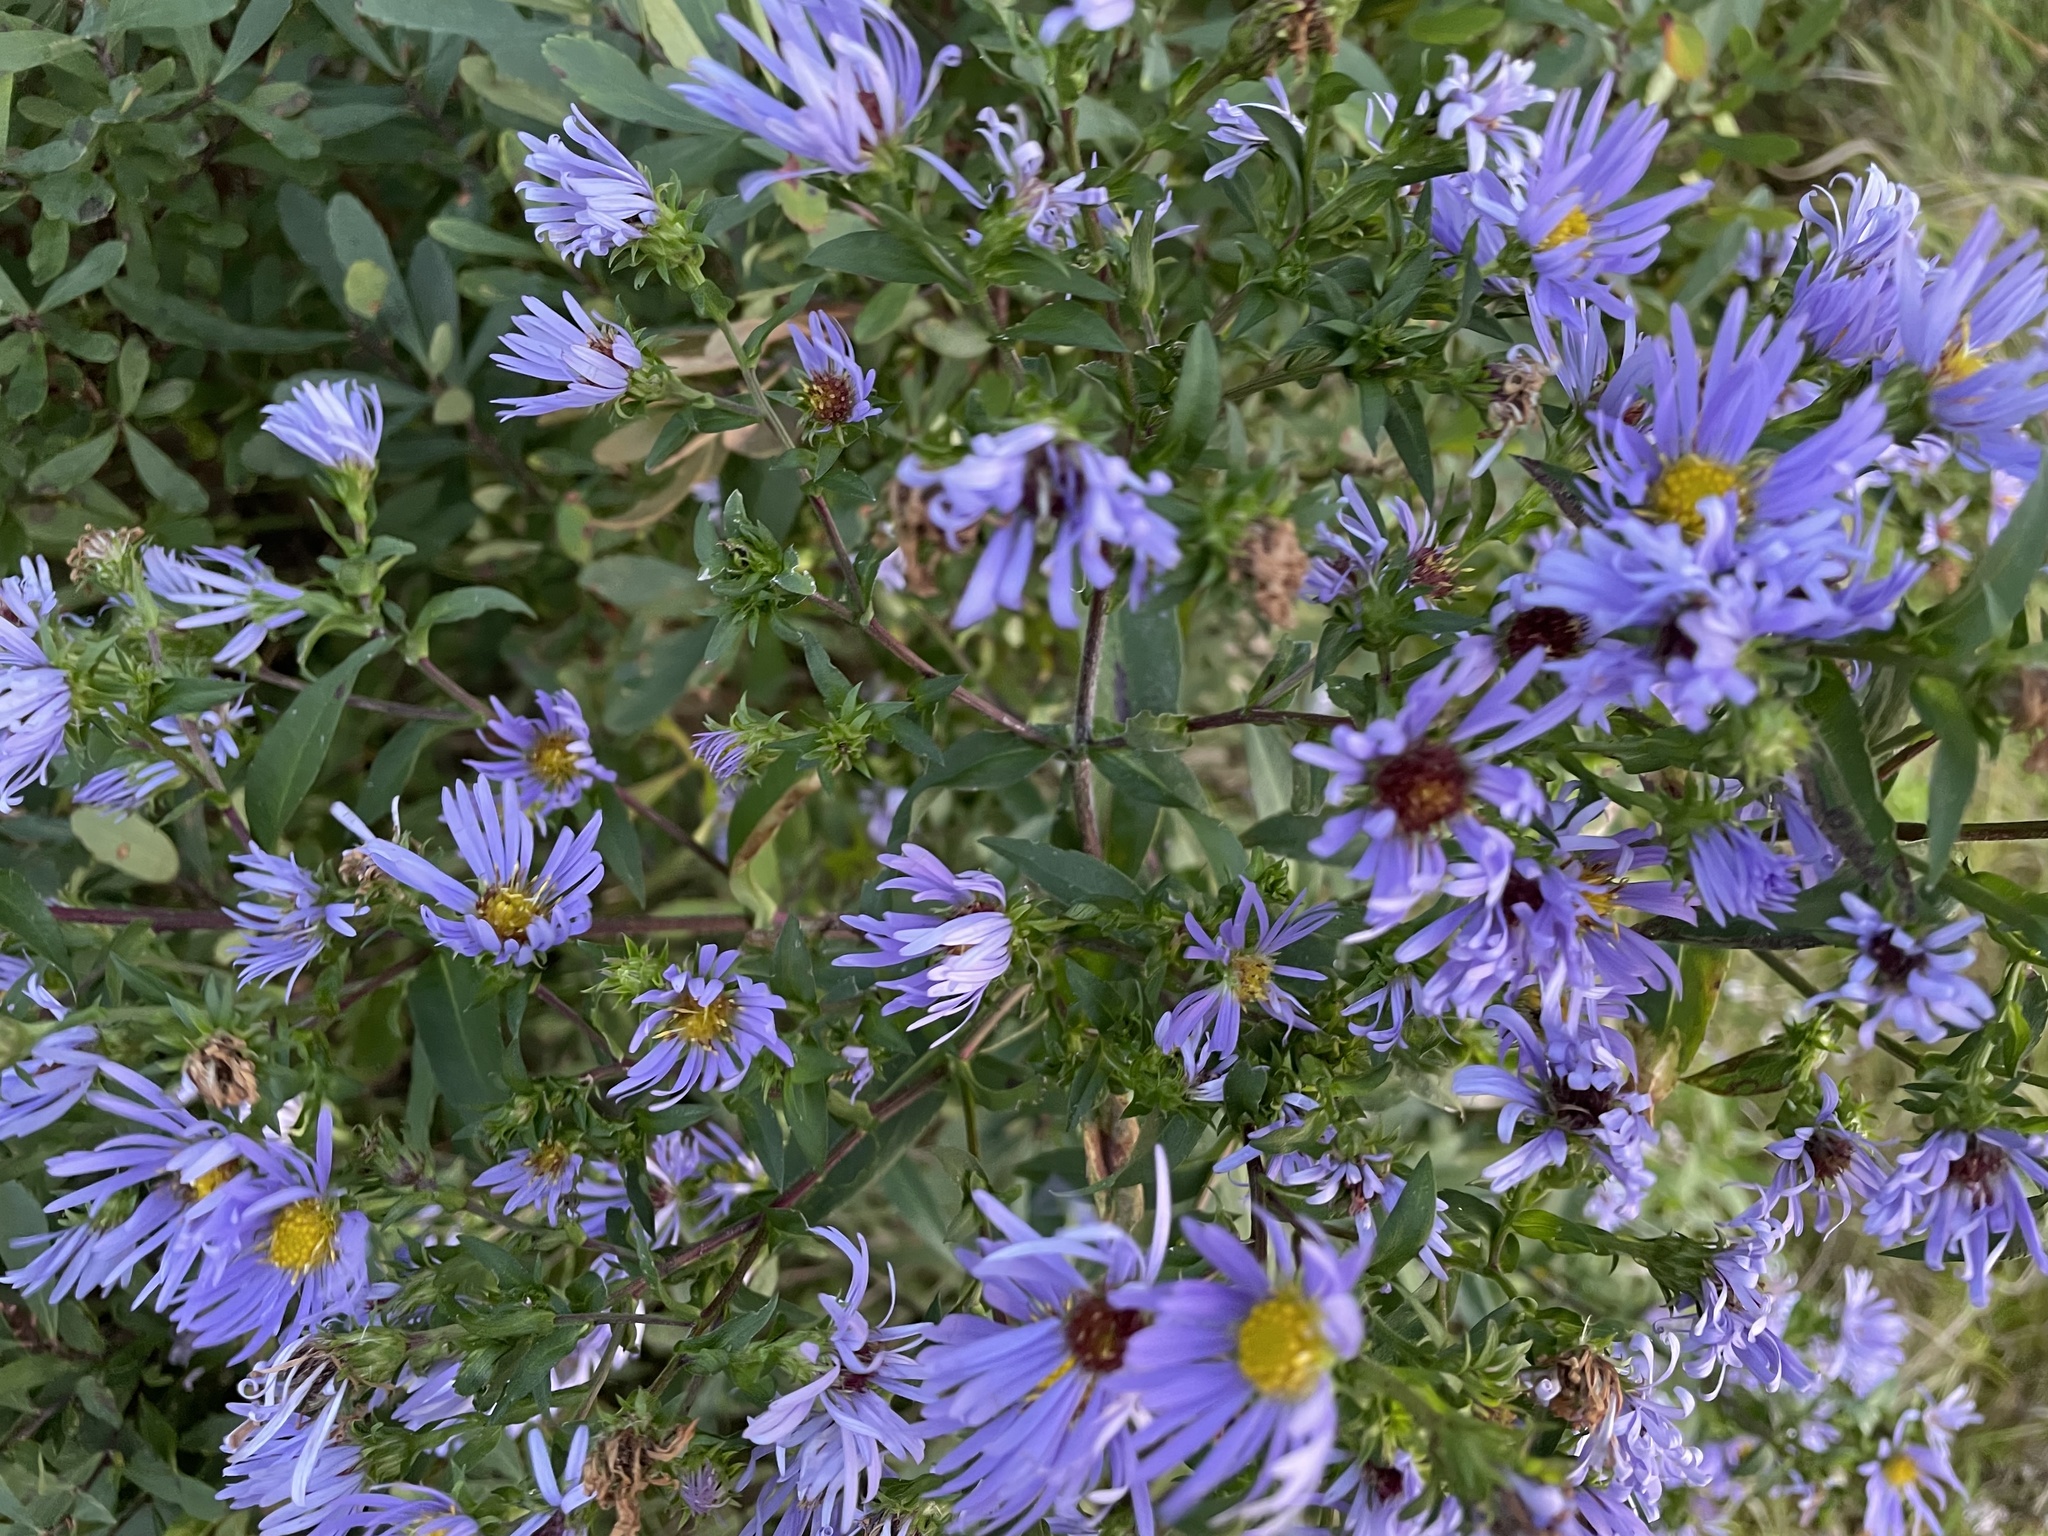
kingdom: Plantae
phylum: Tracheophyta
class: Magnoliopsida
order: Asterales
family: Asteraceae
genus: Symphyotrichum
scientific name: Symphyotrichum puniceum
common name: Bog aster
